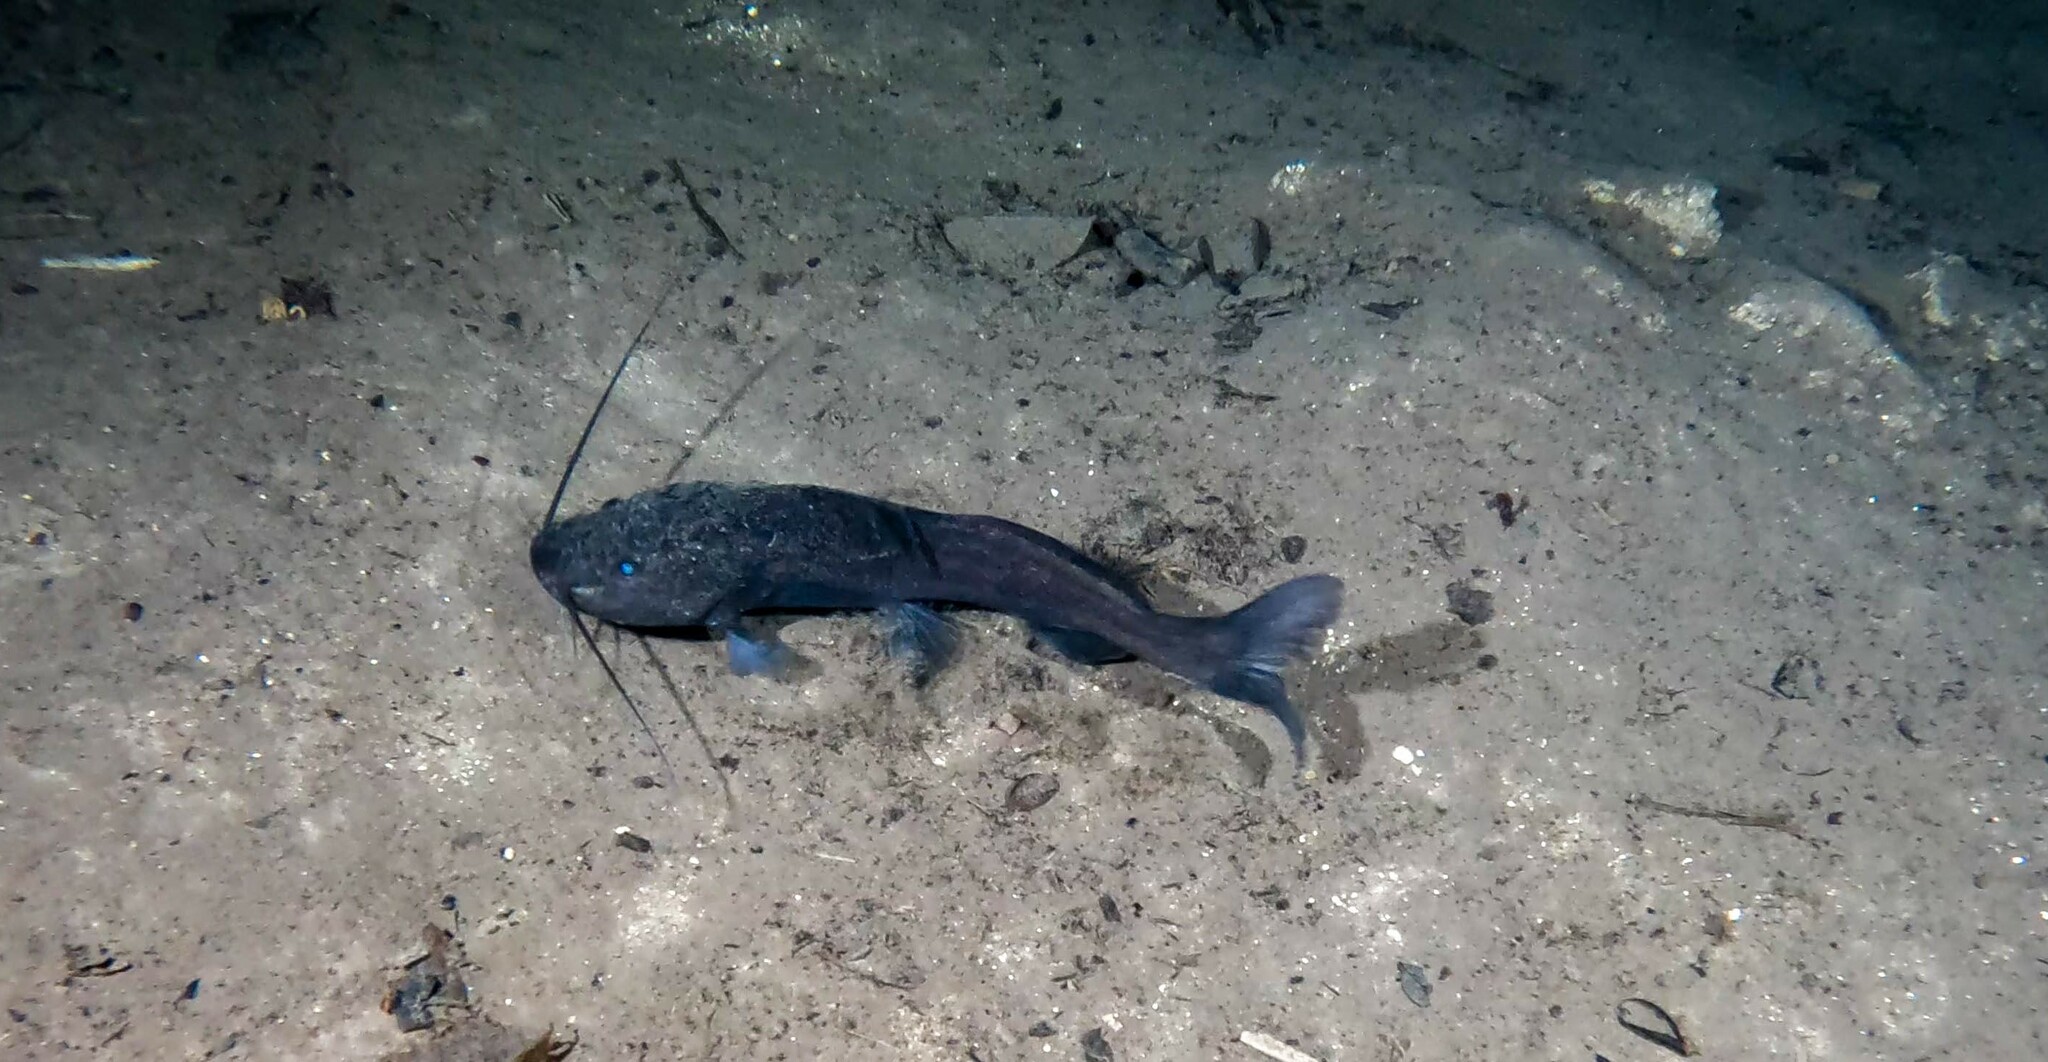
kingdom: Animalia
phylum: Chordata
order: Siluriformes
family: Heptapteridae
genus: Rhamdia
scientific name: Rhamdia guatemalensis
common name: Pale catfish
